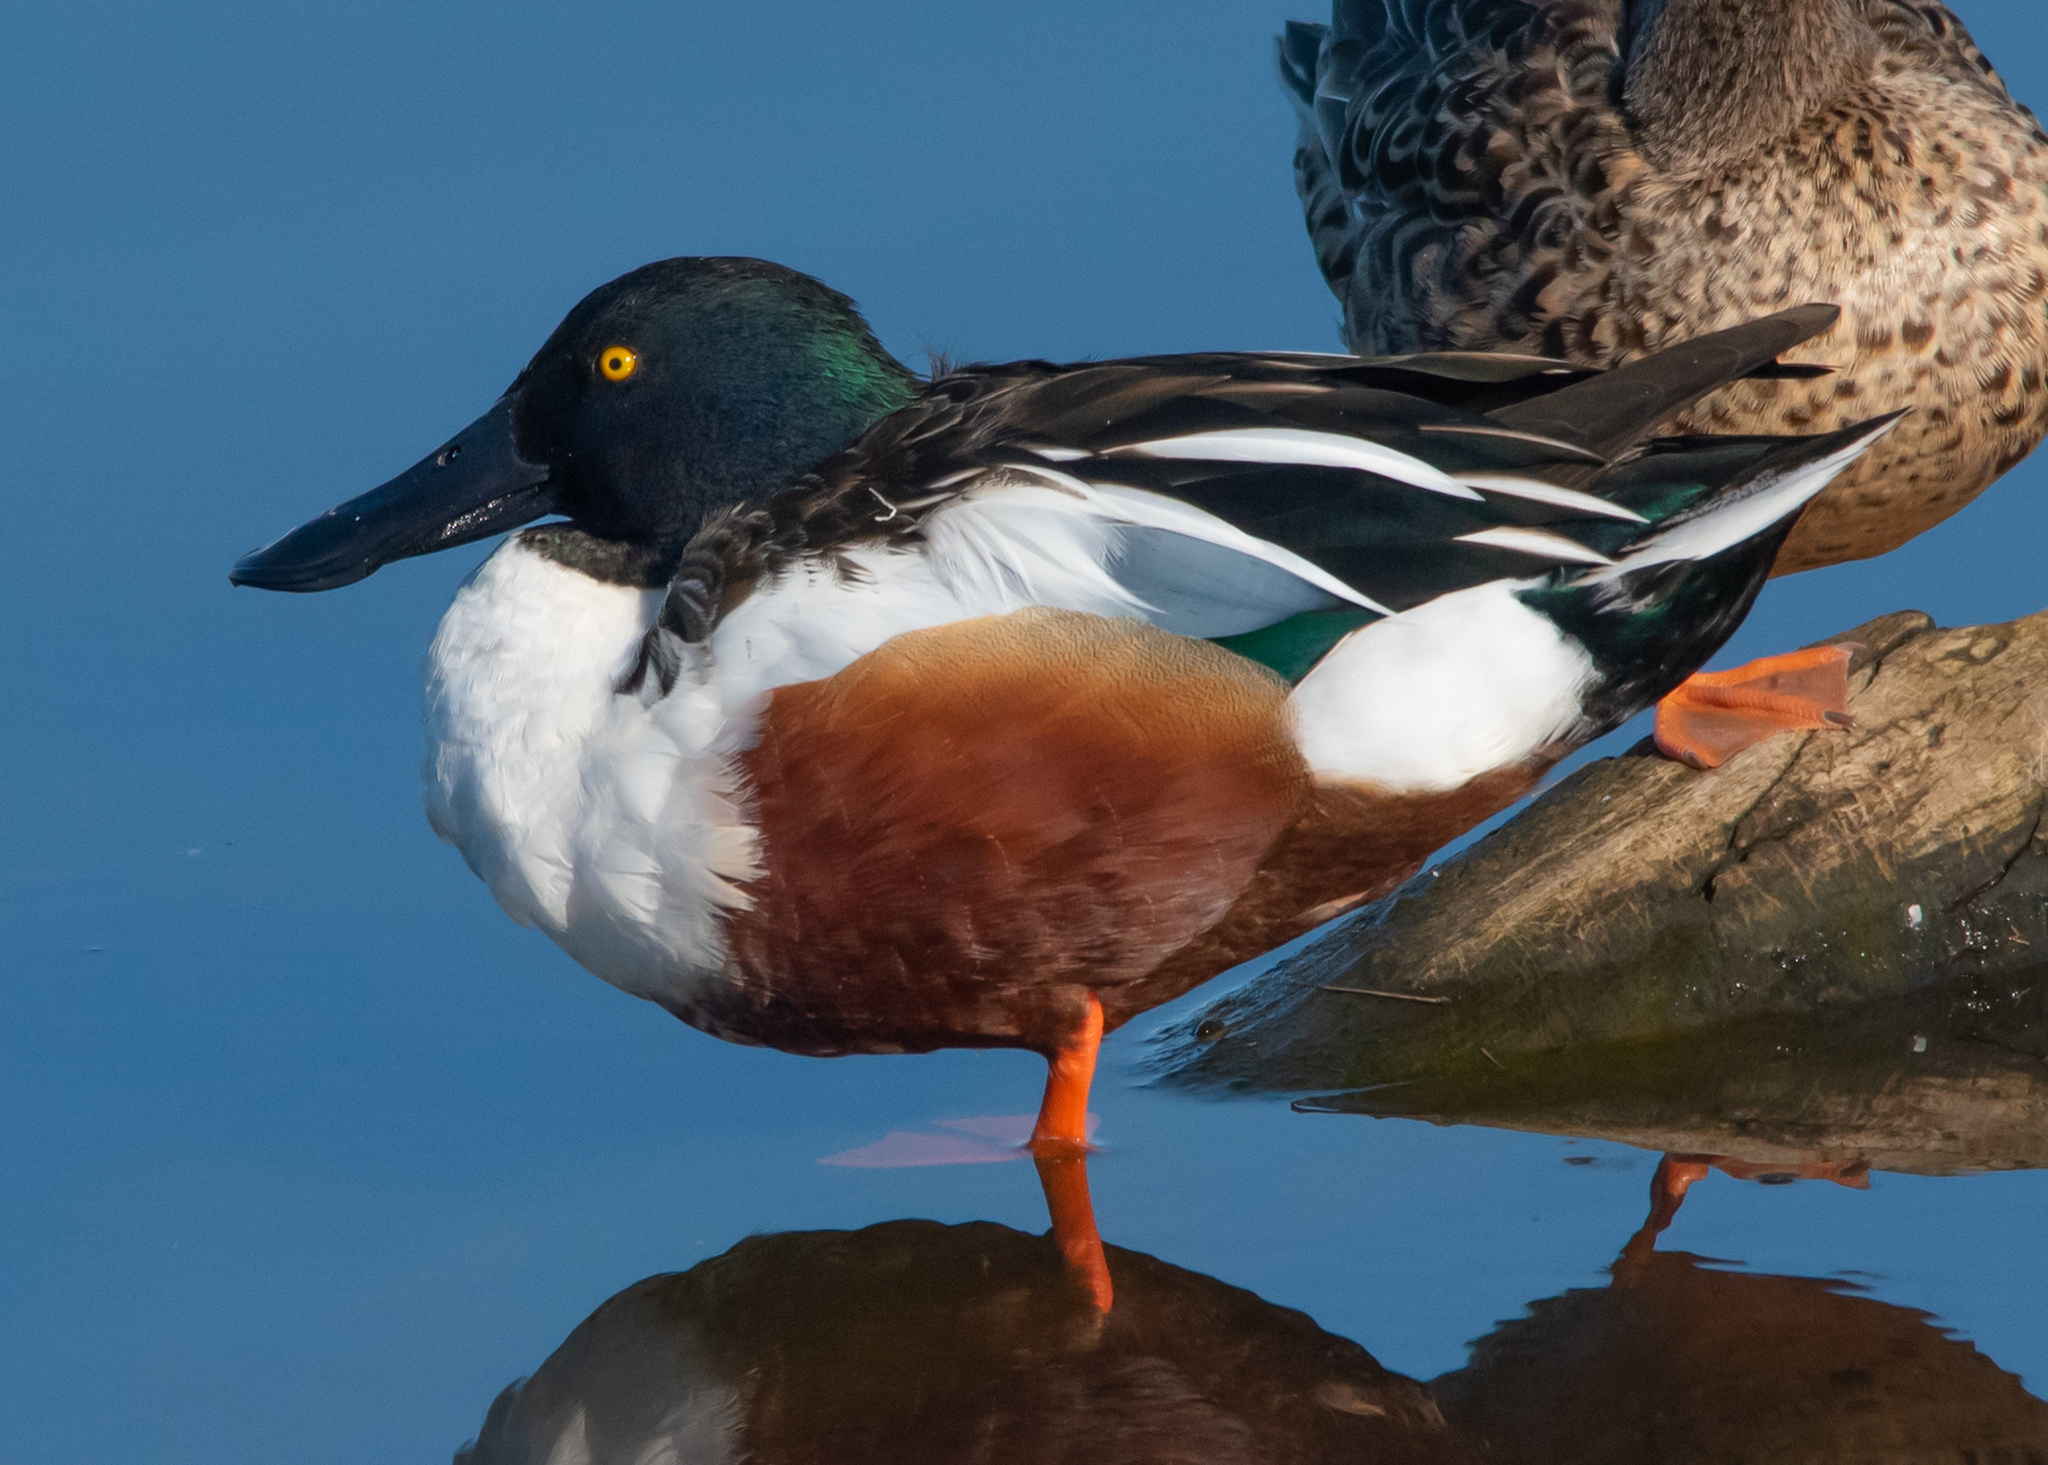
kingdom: Animalia
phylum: Chordata
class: Aves
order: Anseriformes
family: Anatidae
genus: Spatula
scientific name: Spatula clypeata
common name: Northern shoveler
